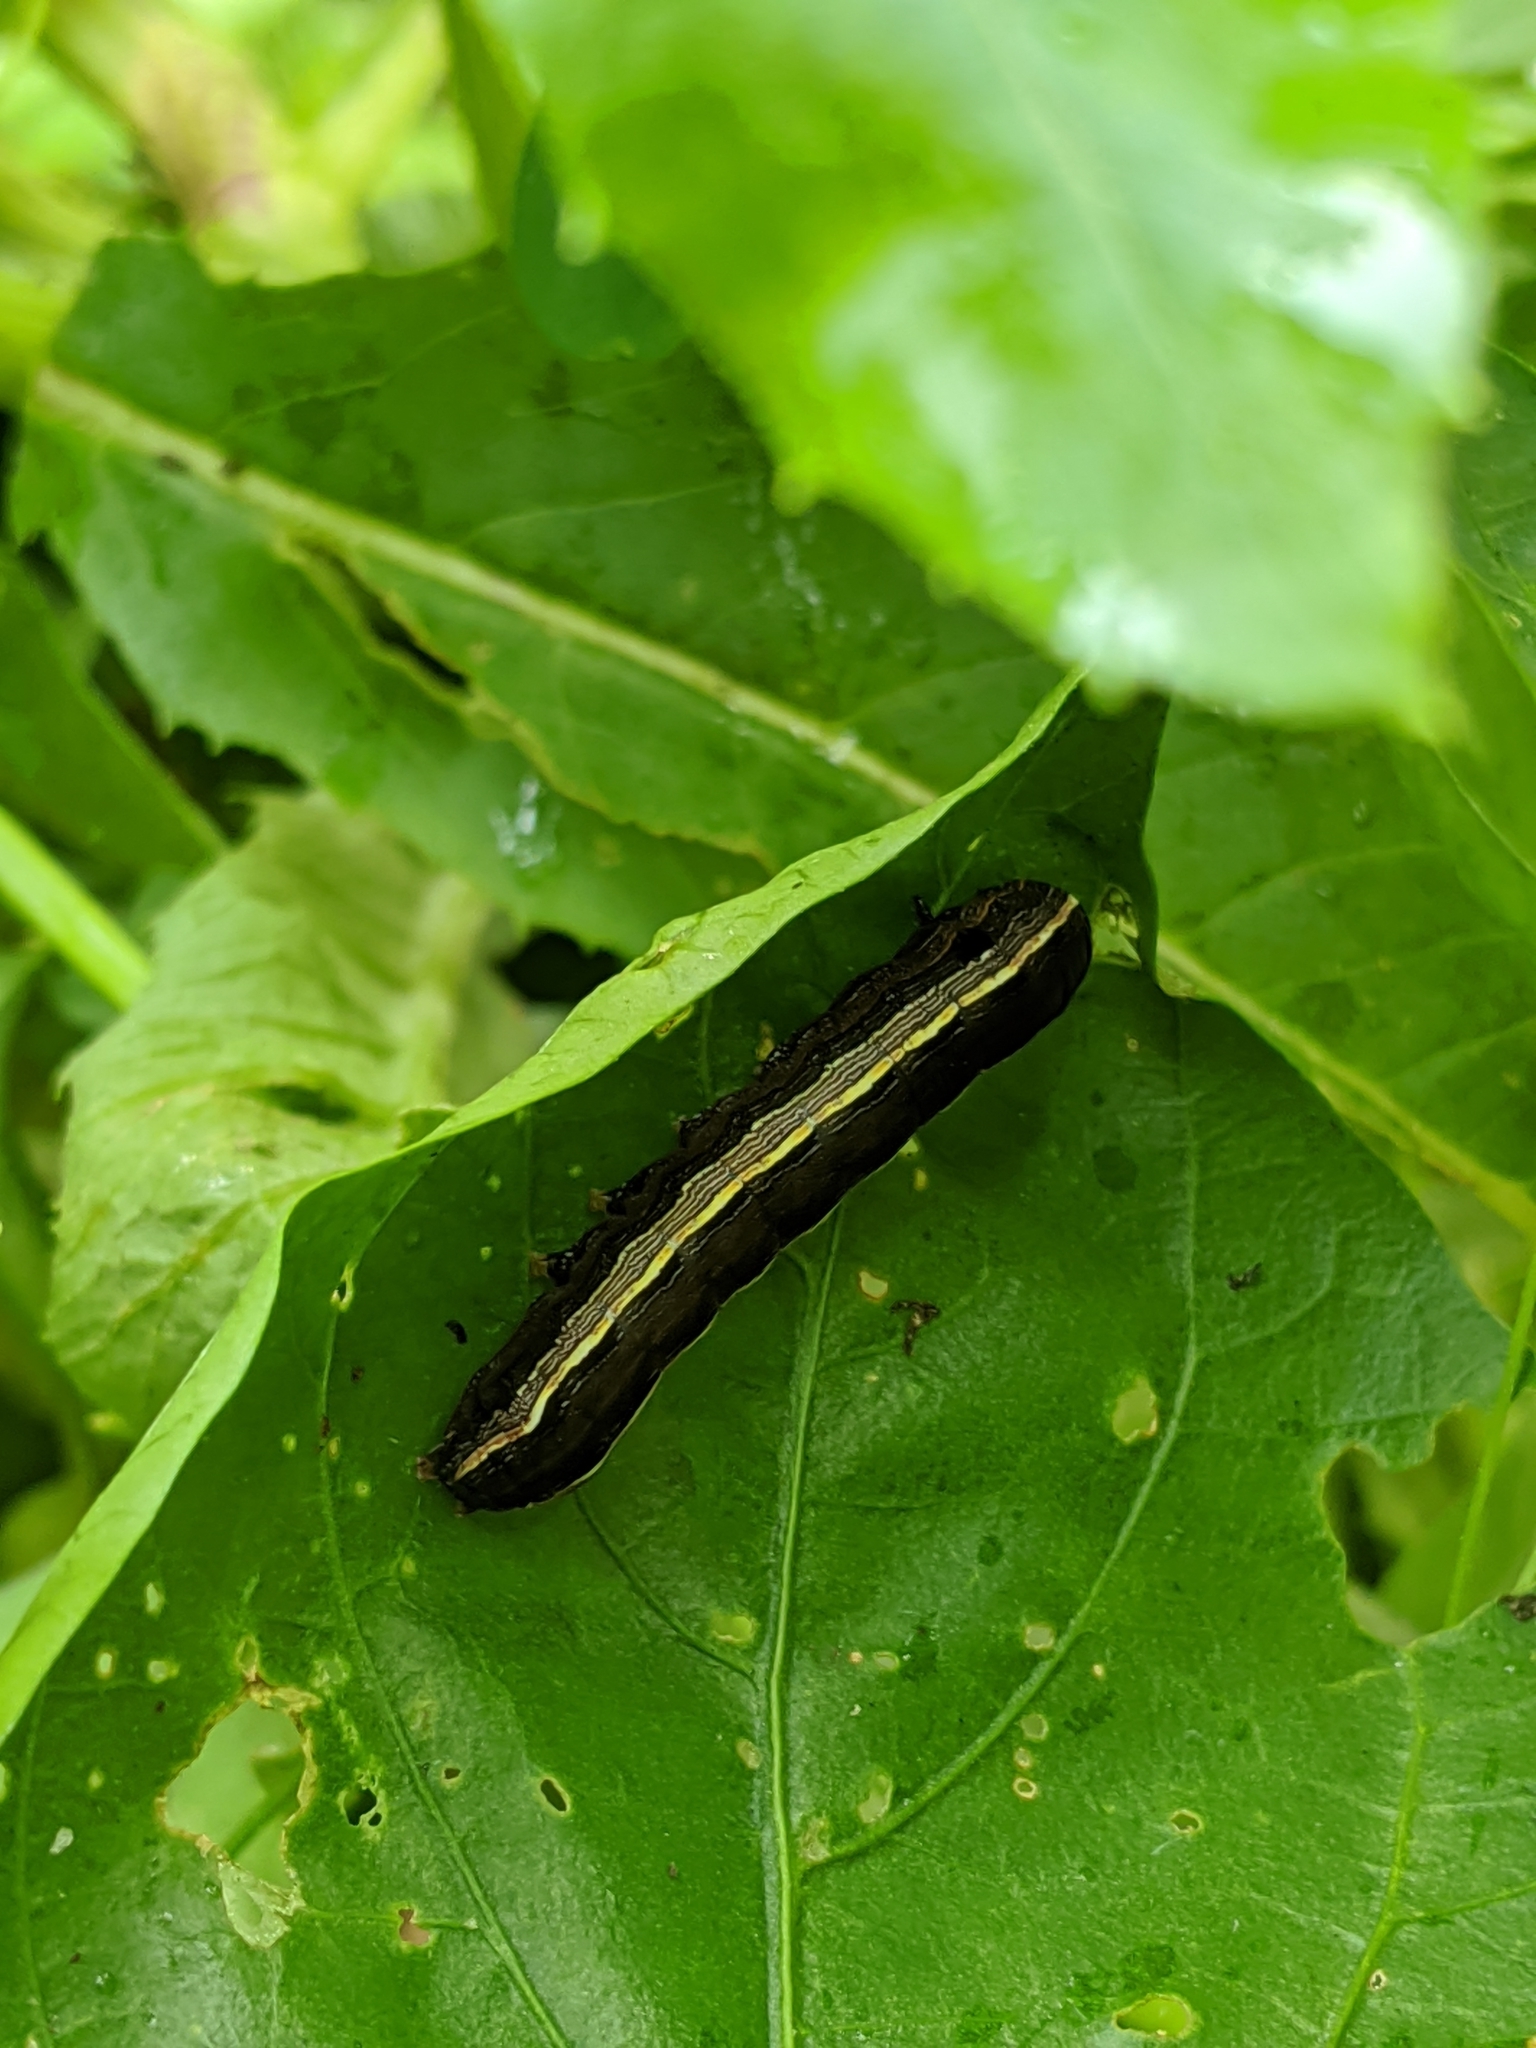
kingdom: Animalia
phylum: Arthropoda
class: Insecta
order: Lepidoptera
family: Noctuidae
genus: Spodoptera
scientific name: Spodoptera ornithogalli
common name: Yellow-striped armyworm
